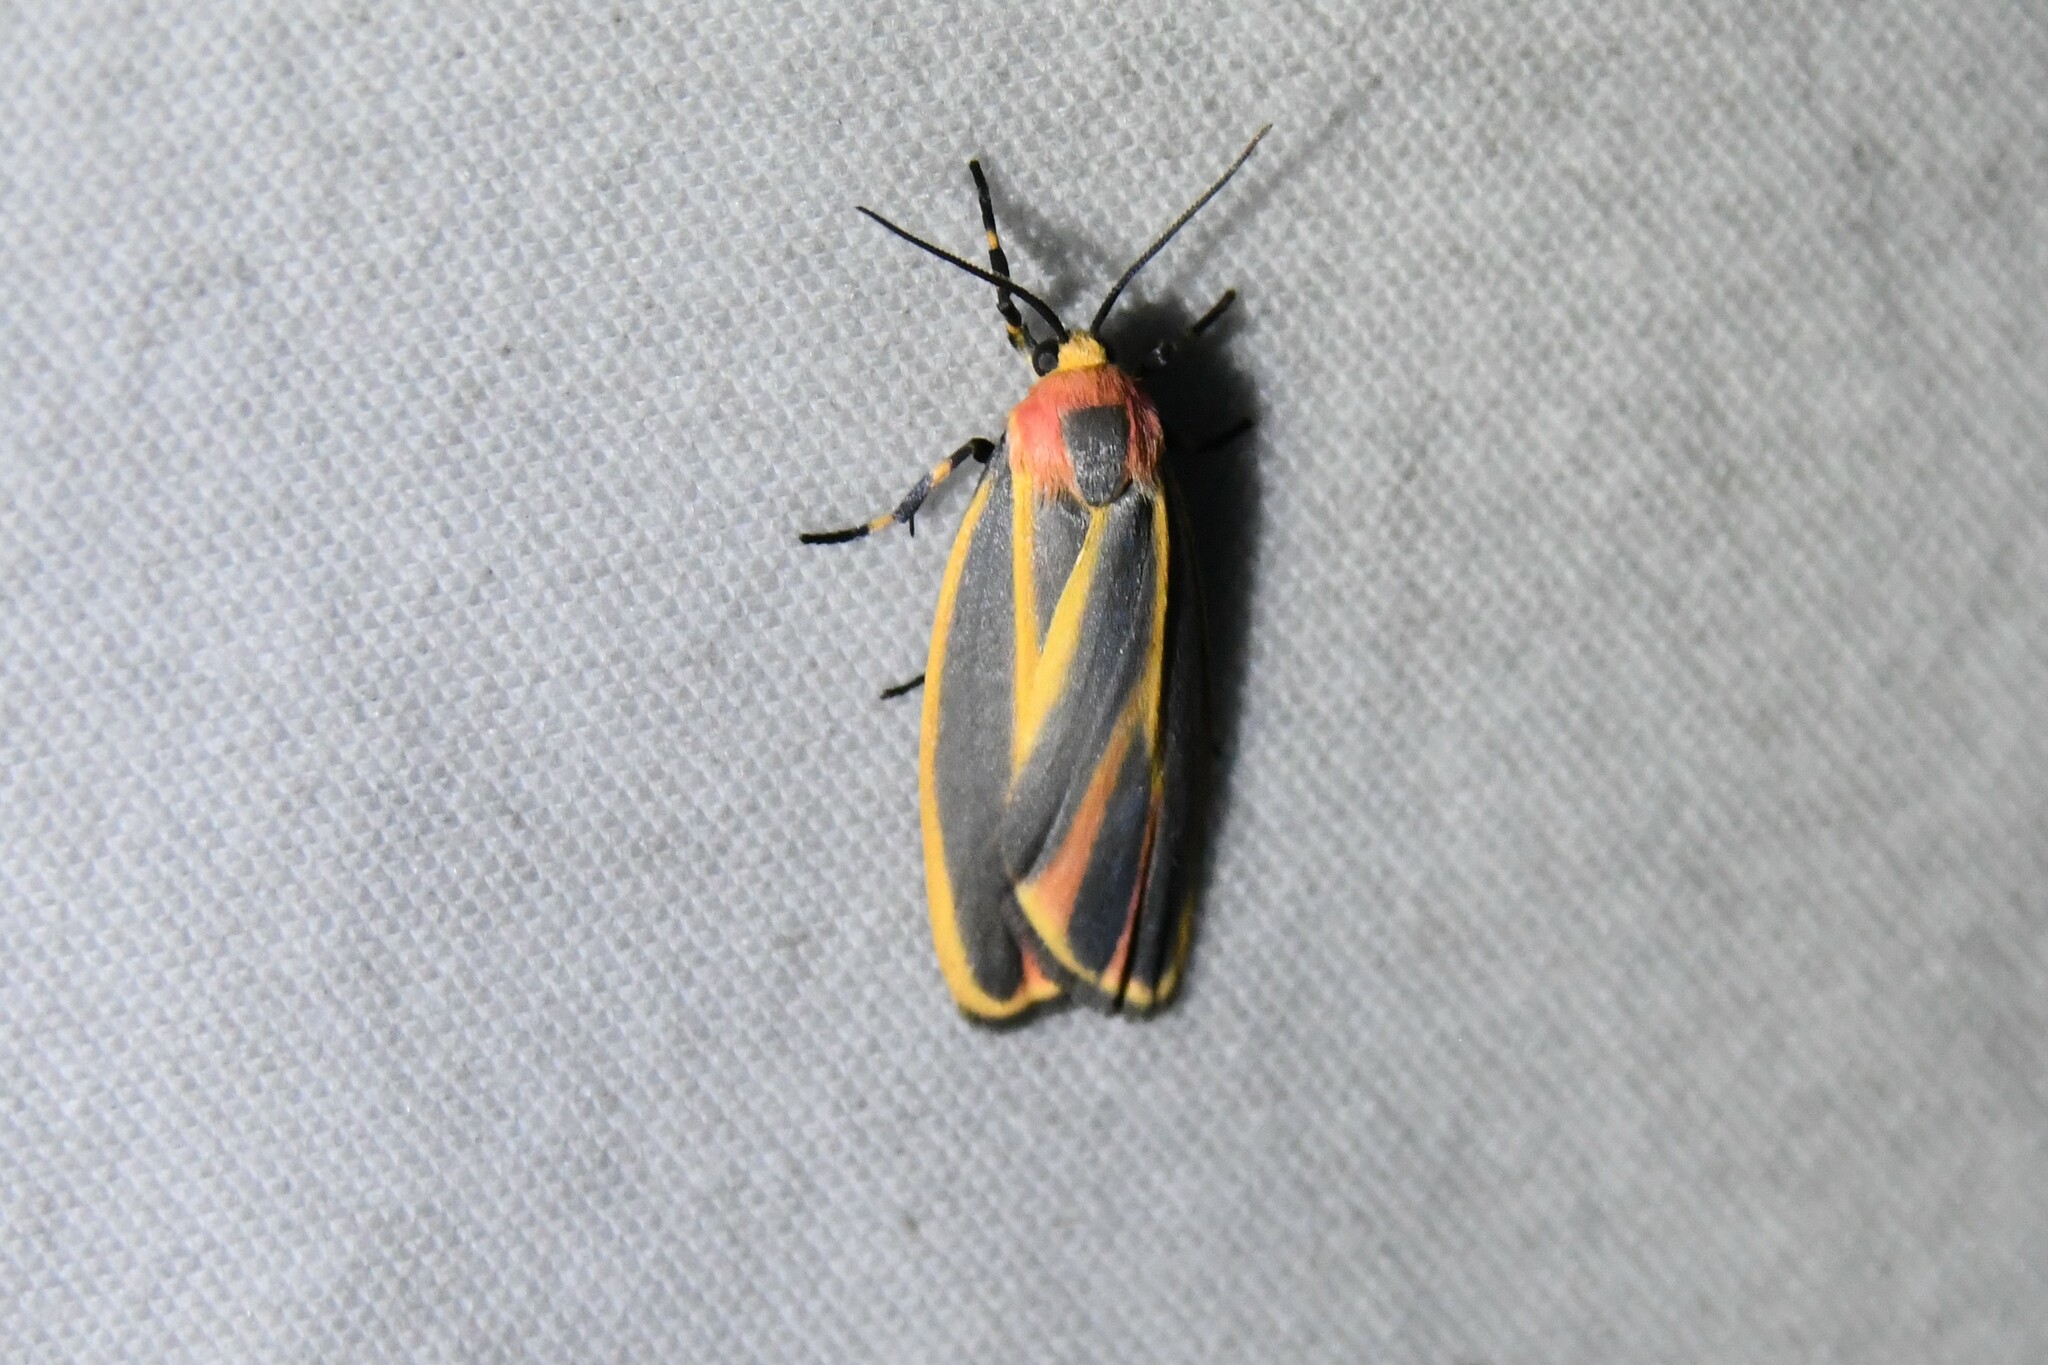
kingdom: Animalia
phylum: Arthropoda
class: Insecta
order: Lepidoptera
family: Erebidae
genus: Hypoprepia
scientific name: Hypoprepia fucosa
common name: Painted lichen moth
